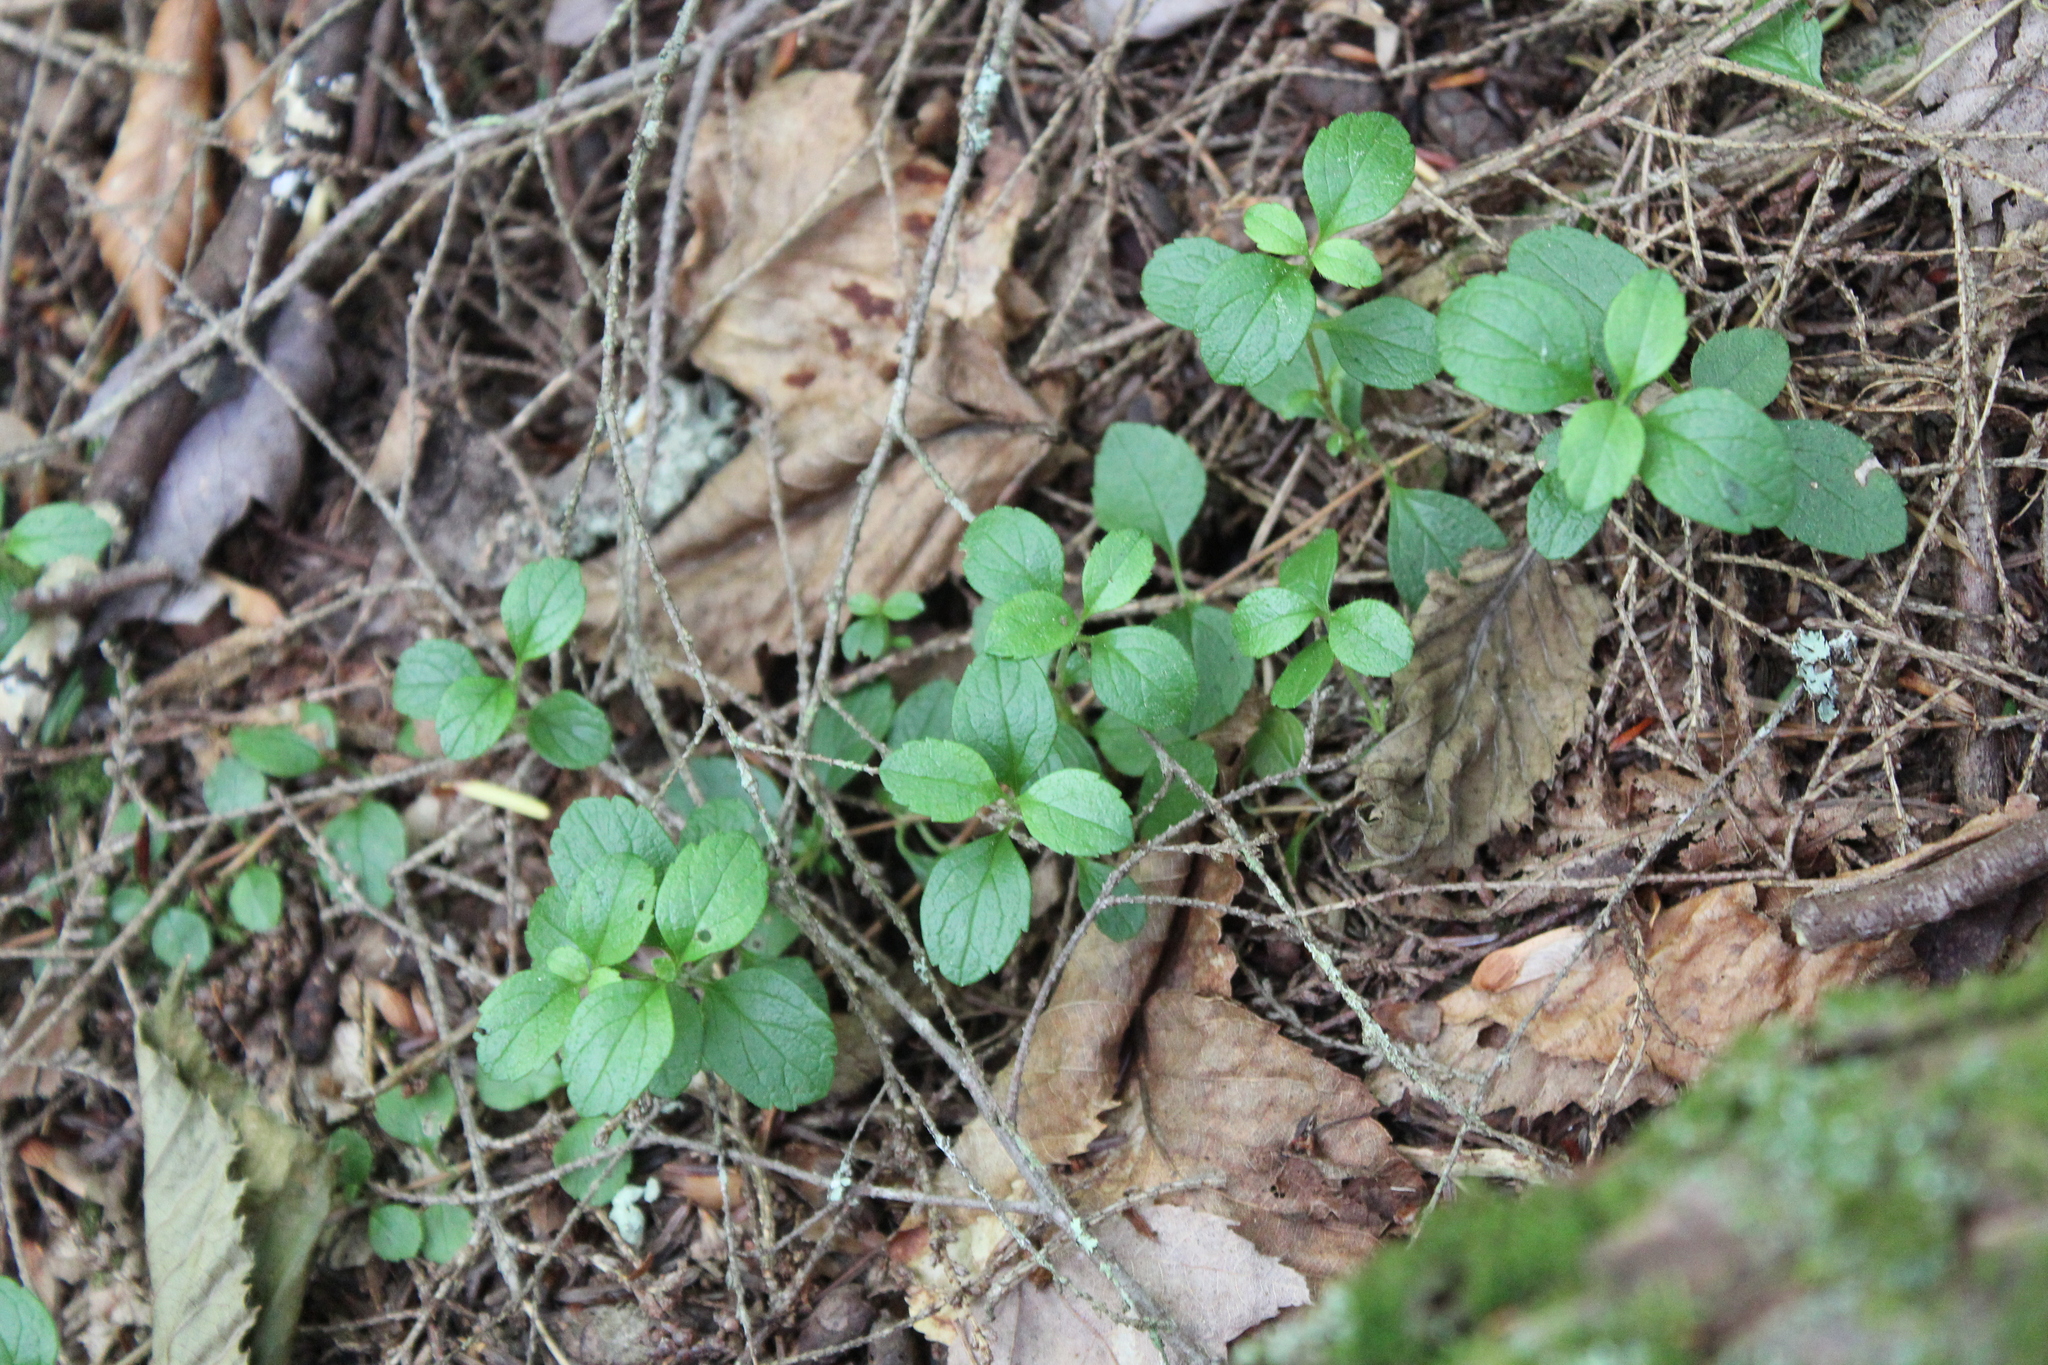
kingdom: Plantae
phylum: Tracheophyta
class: Magnoliopsida
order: Dipsacales
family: Caprifoliaceae
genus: Linnaea
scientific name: Linnaea borealis
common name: Twinflower
